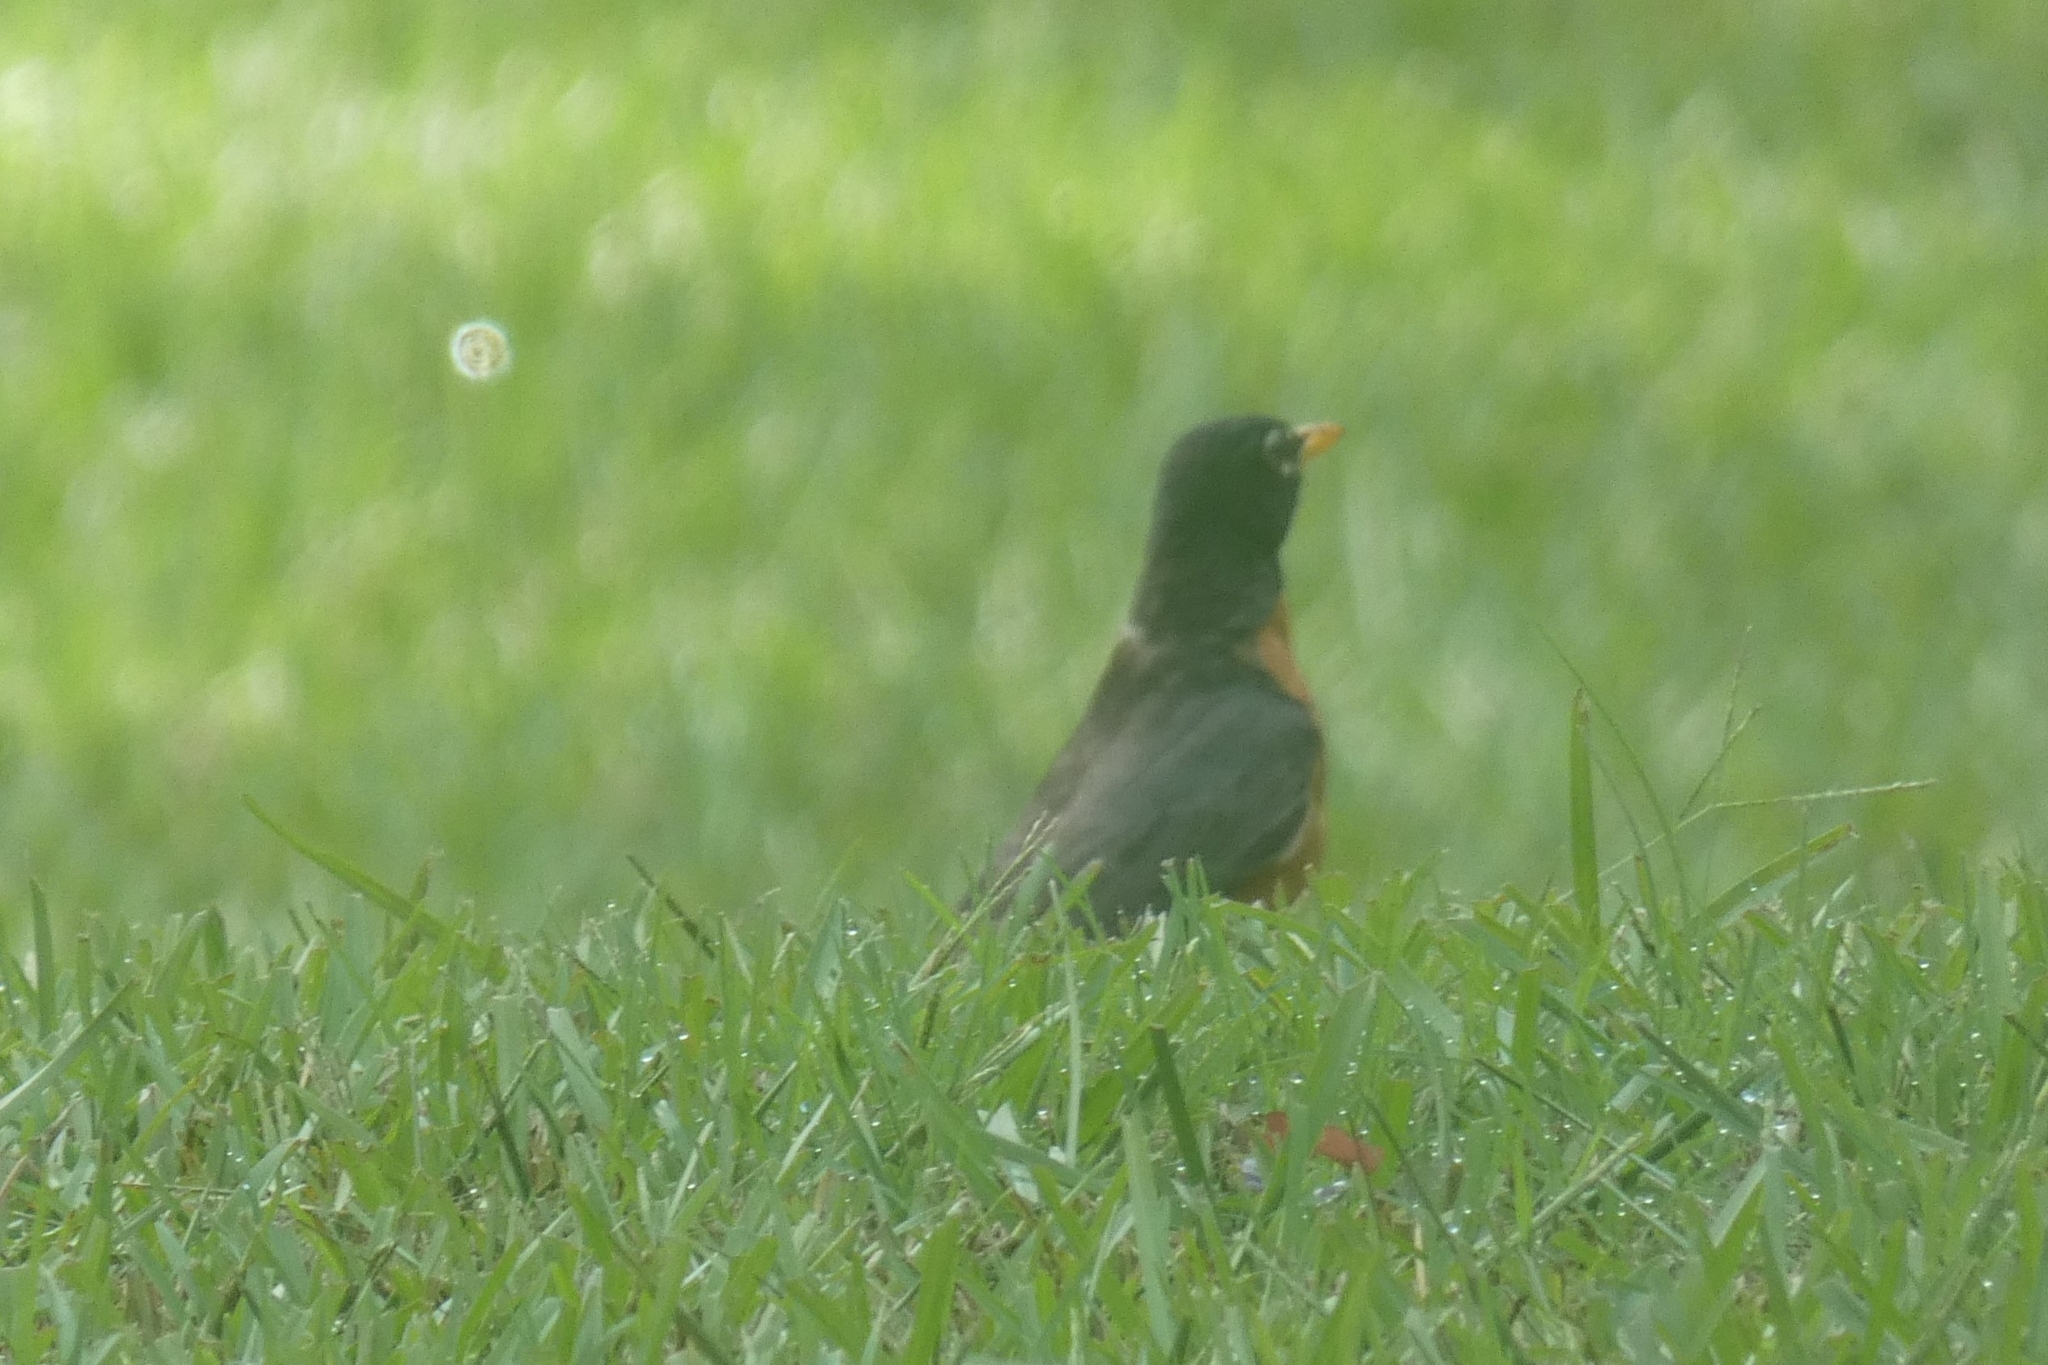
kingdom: Animalia
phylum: Chordata
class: Aves
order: Passeriformes
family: Turdidae
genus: Turdus
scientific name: Turdus migratorius
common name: American robin
